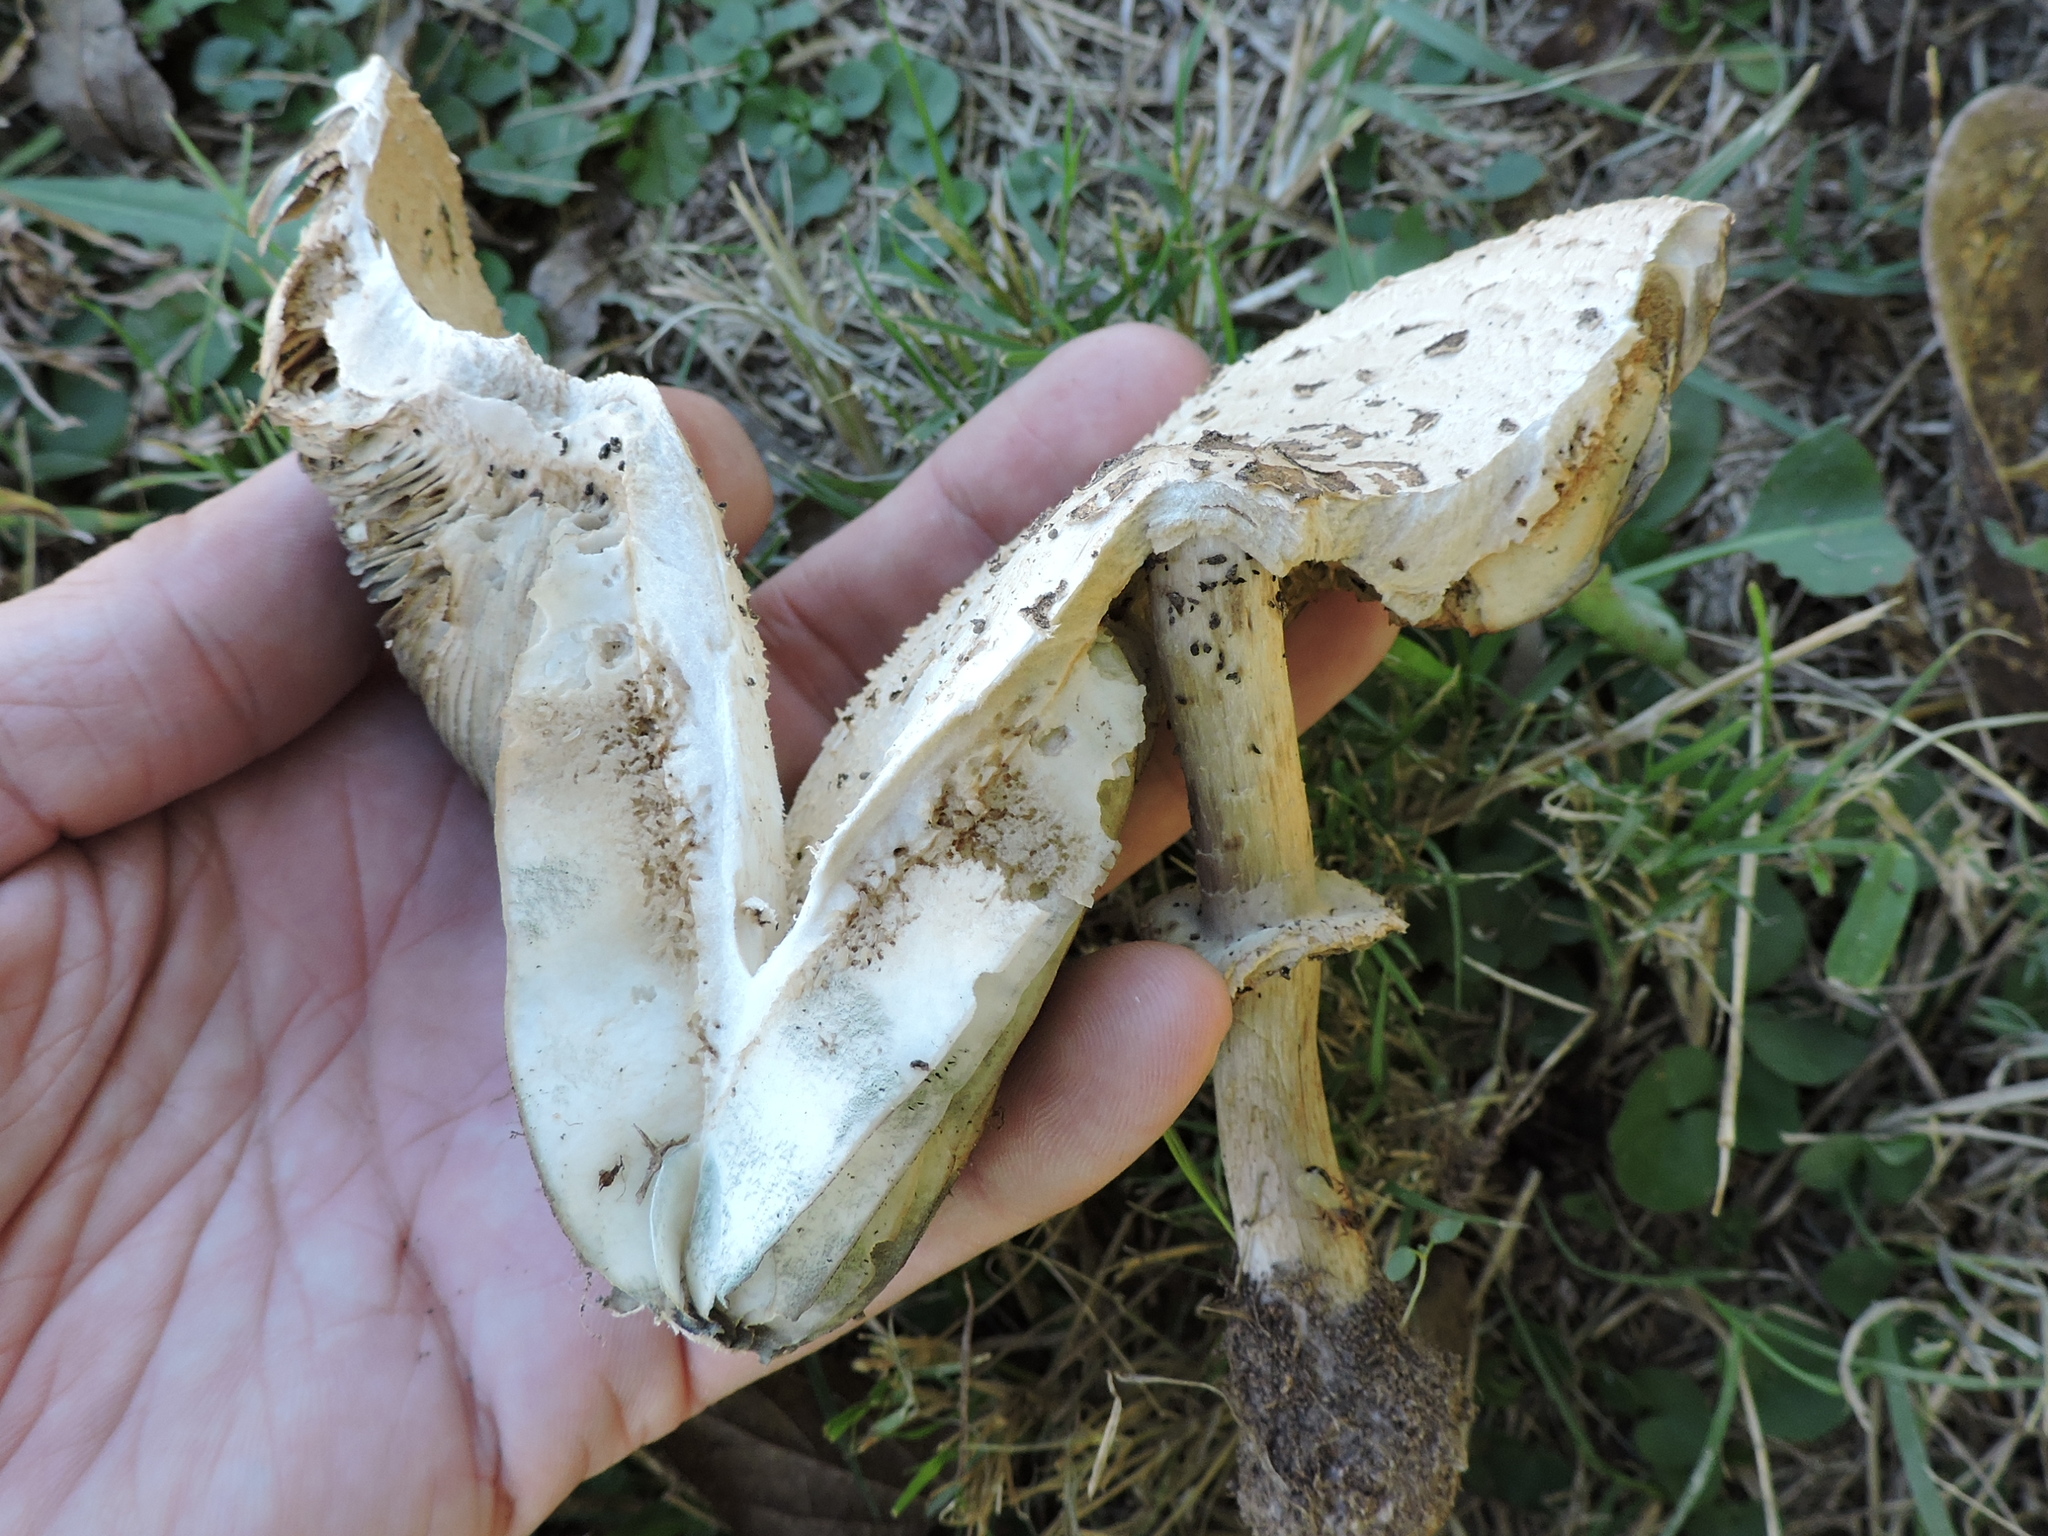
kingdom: Fungi
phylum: Basidiomycota
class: Agaricomycetes
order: Agaricales
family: Agaricaceae
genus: Chlorophyllum
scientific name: Chlorophyllum molybdites
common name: False parasol
